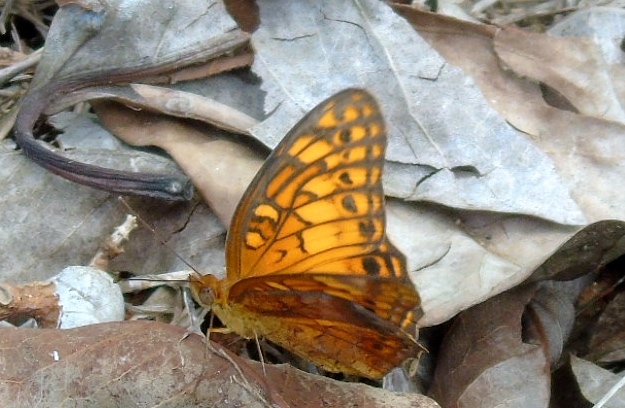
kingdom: Animalia
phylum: Arthropoda
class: Insecta
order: Lepidoptera
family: Nymphalidae
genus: Euptoieta
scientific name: Euptoieta hegesia
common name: Mexican fritillary
